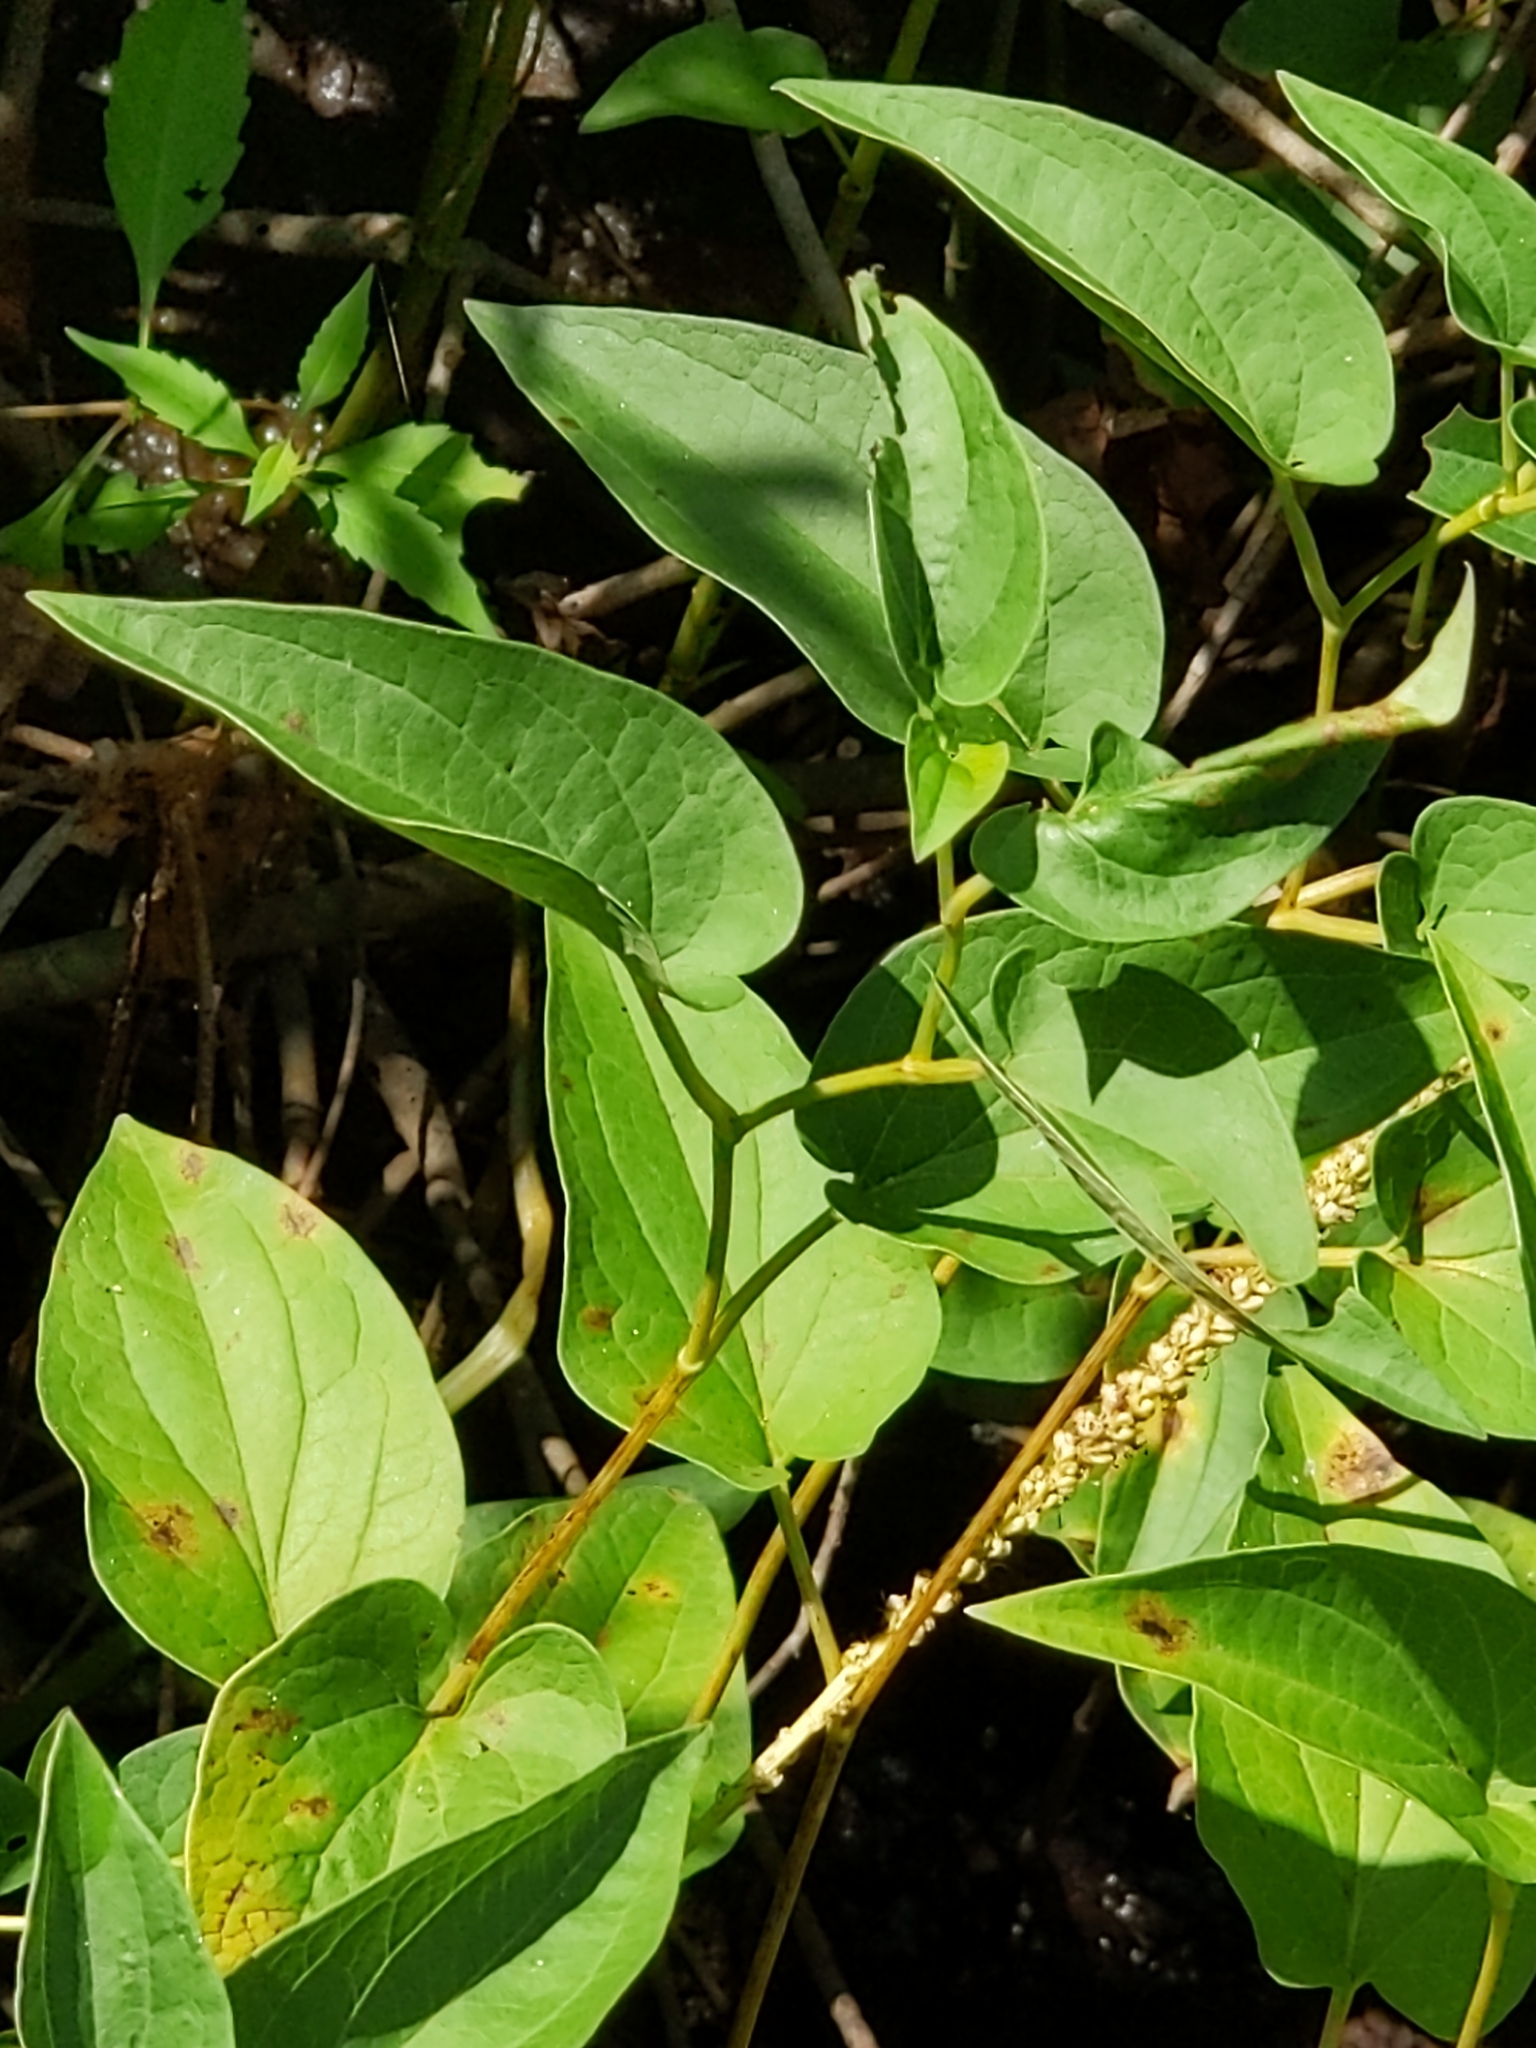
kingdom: Plantae
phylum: Tracheophyta
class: Magnoliopsida
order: Piperales
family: Saururaceae
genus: Saururus
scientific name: Saururus cernuus
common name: Lizard's-tail
